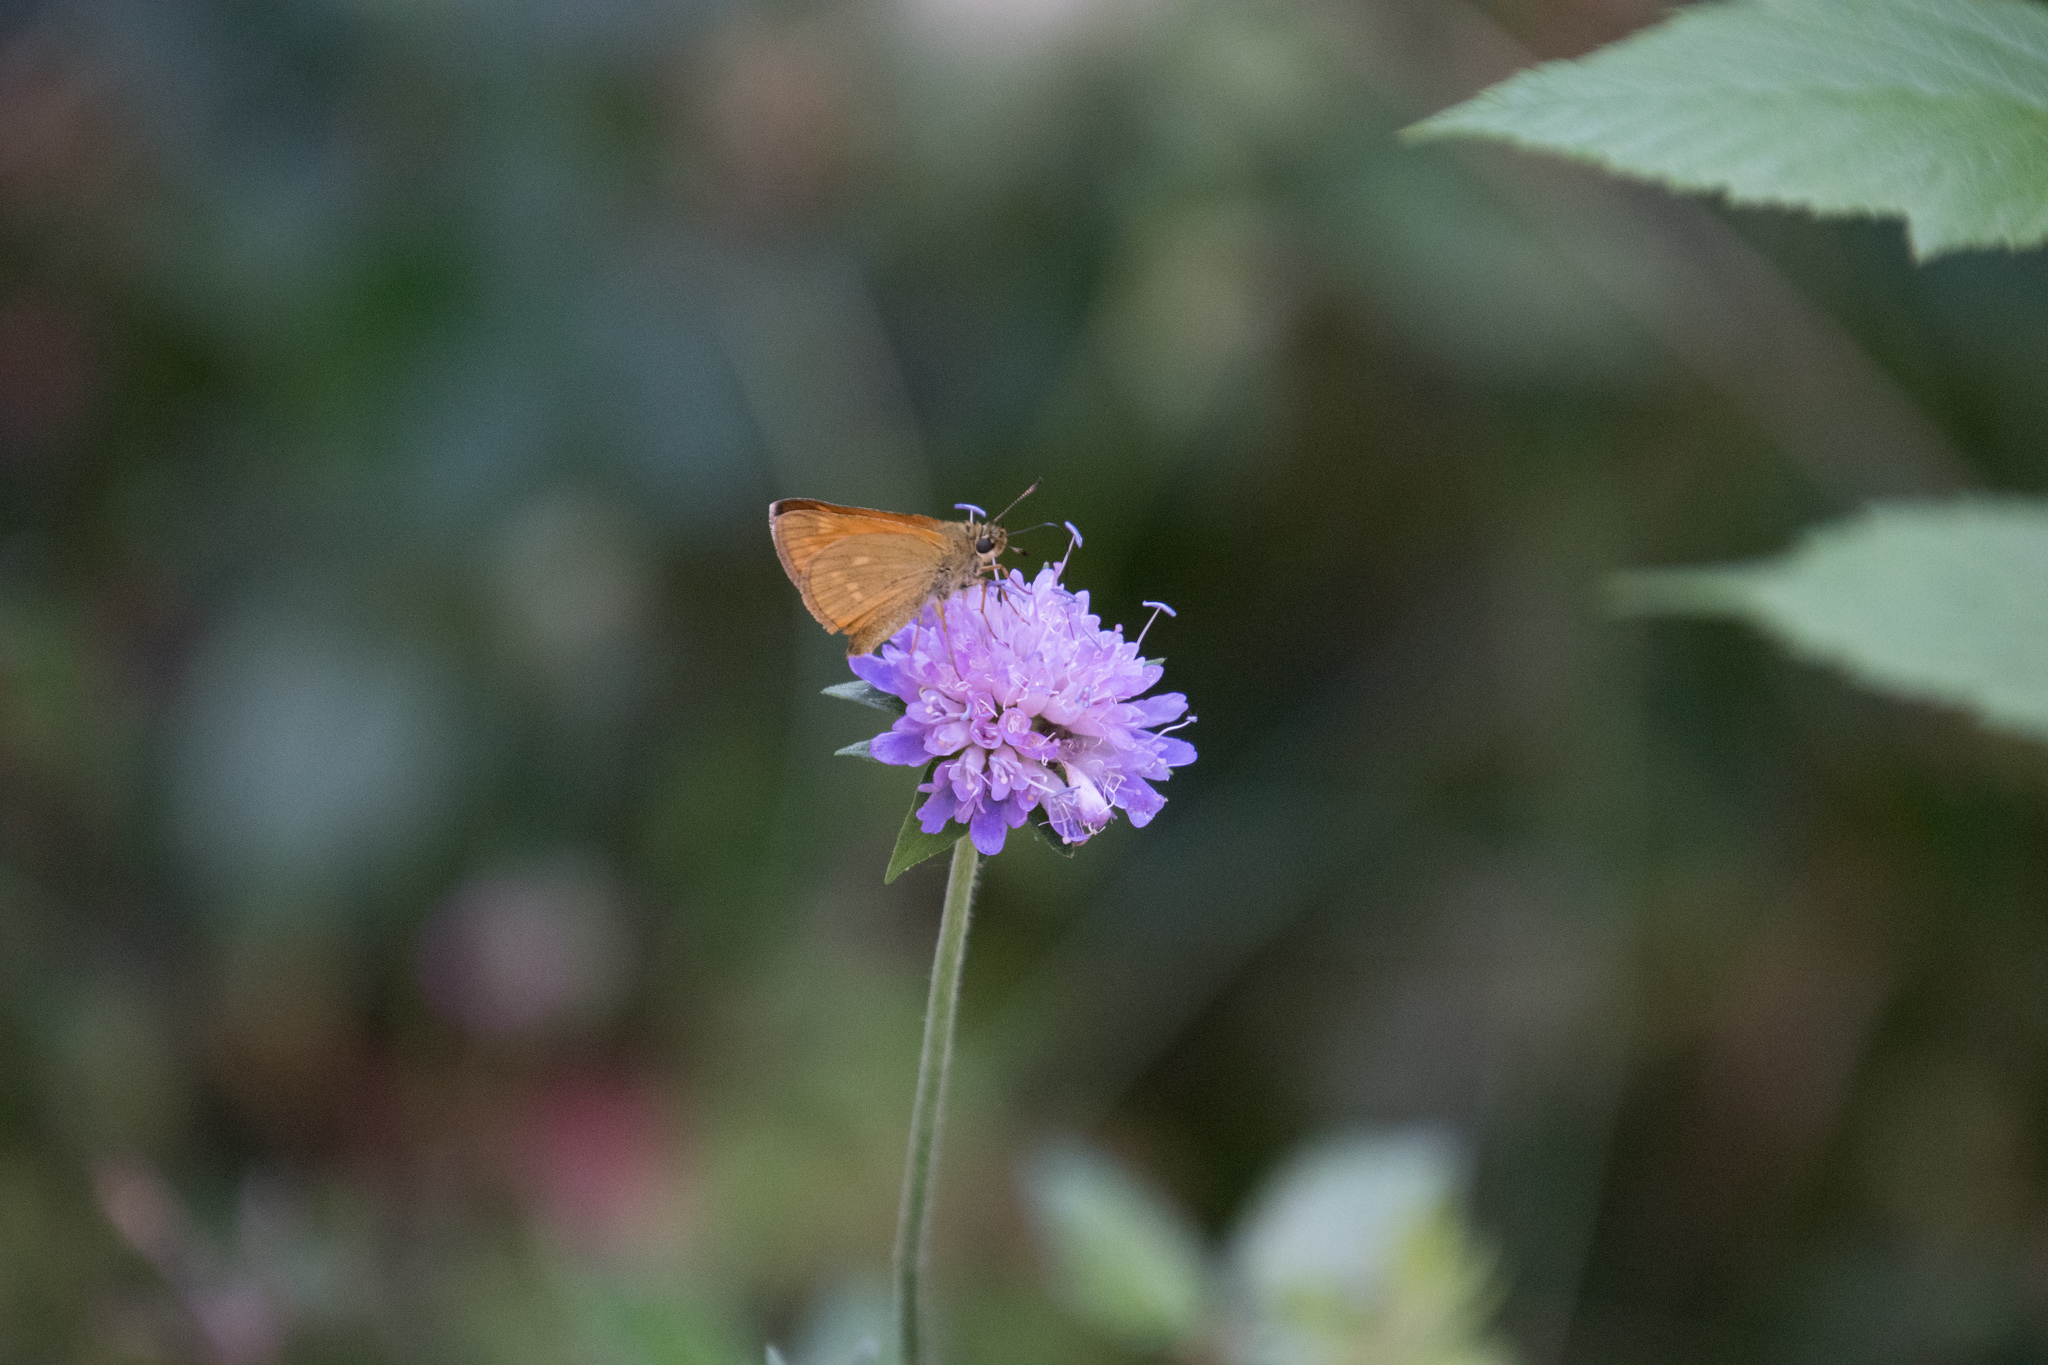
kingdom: Animalia
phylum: Arthropoda
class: Insecta
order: Lepidoptera
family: Hesperiidae
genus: Ochlodes
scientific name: Ochlodes venata
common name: Large skipper
